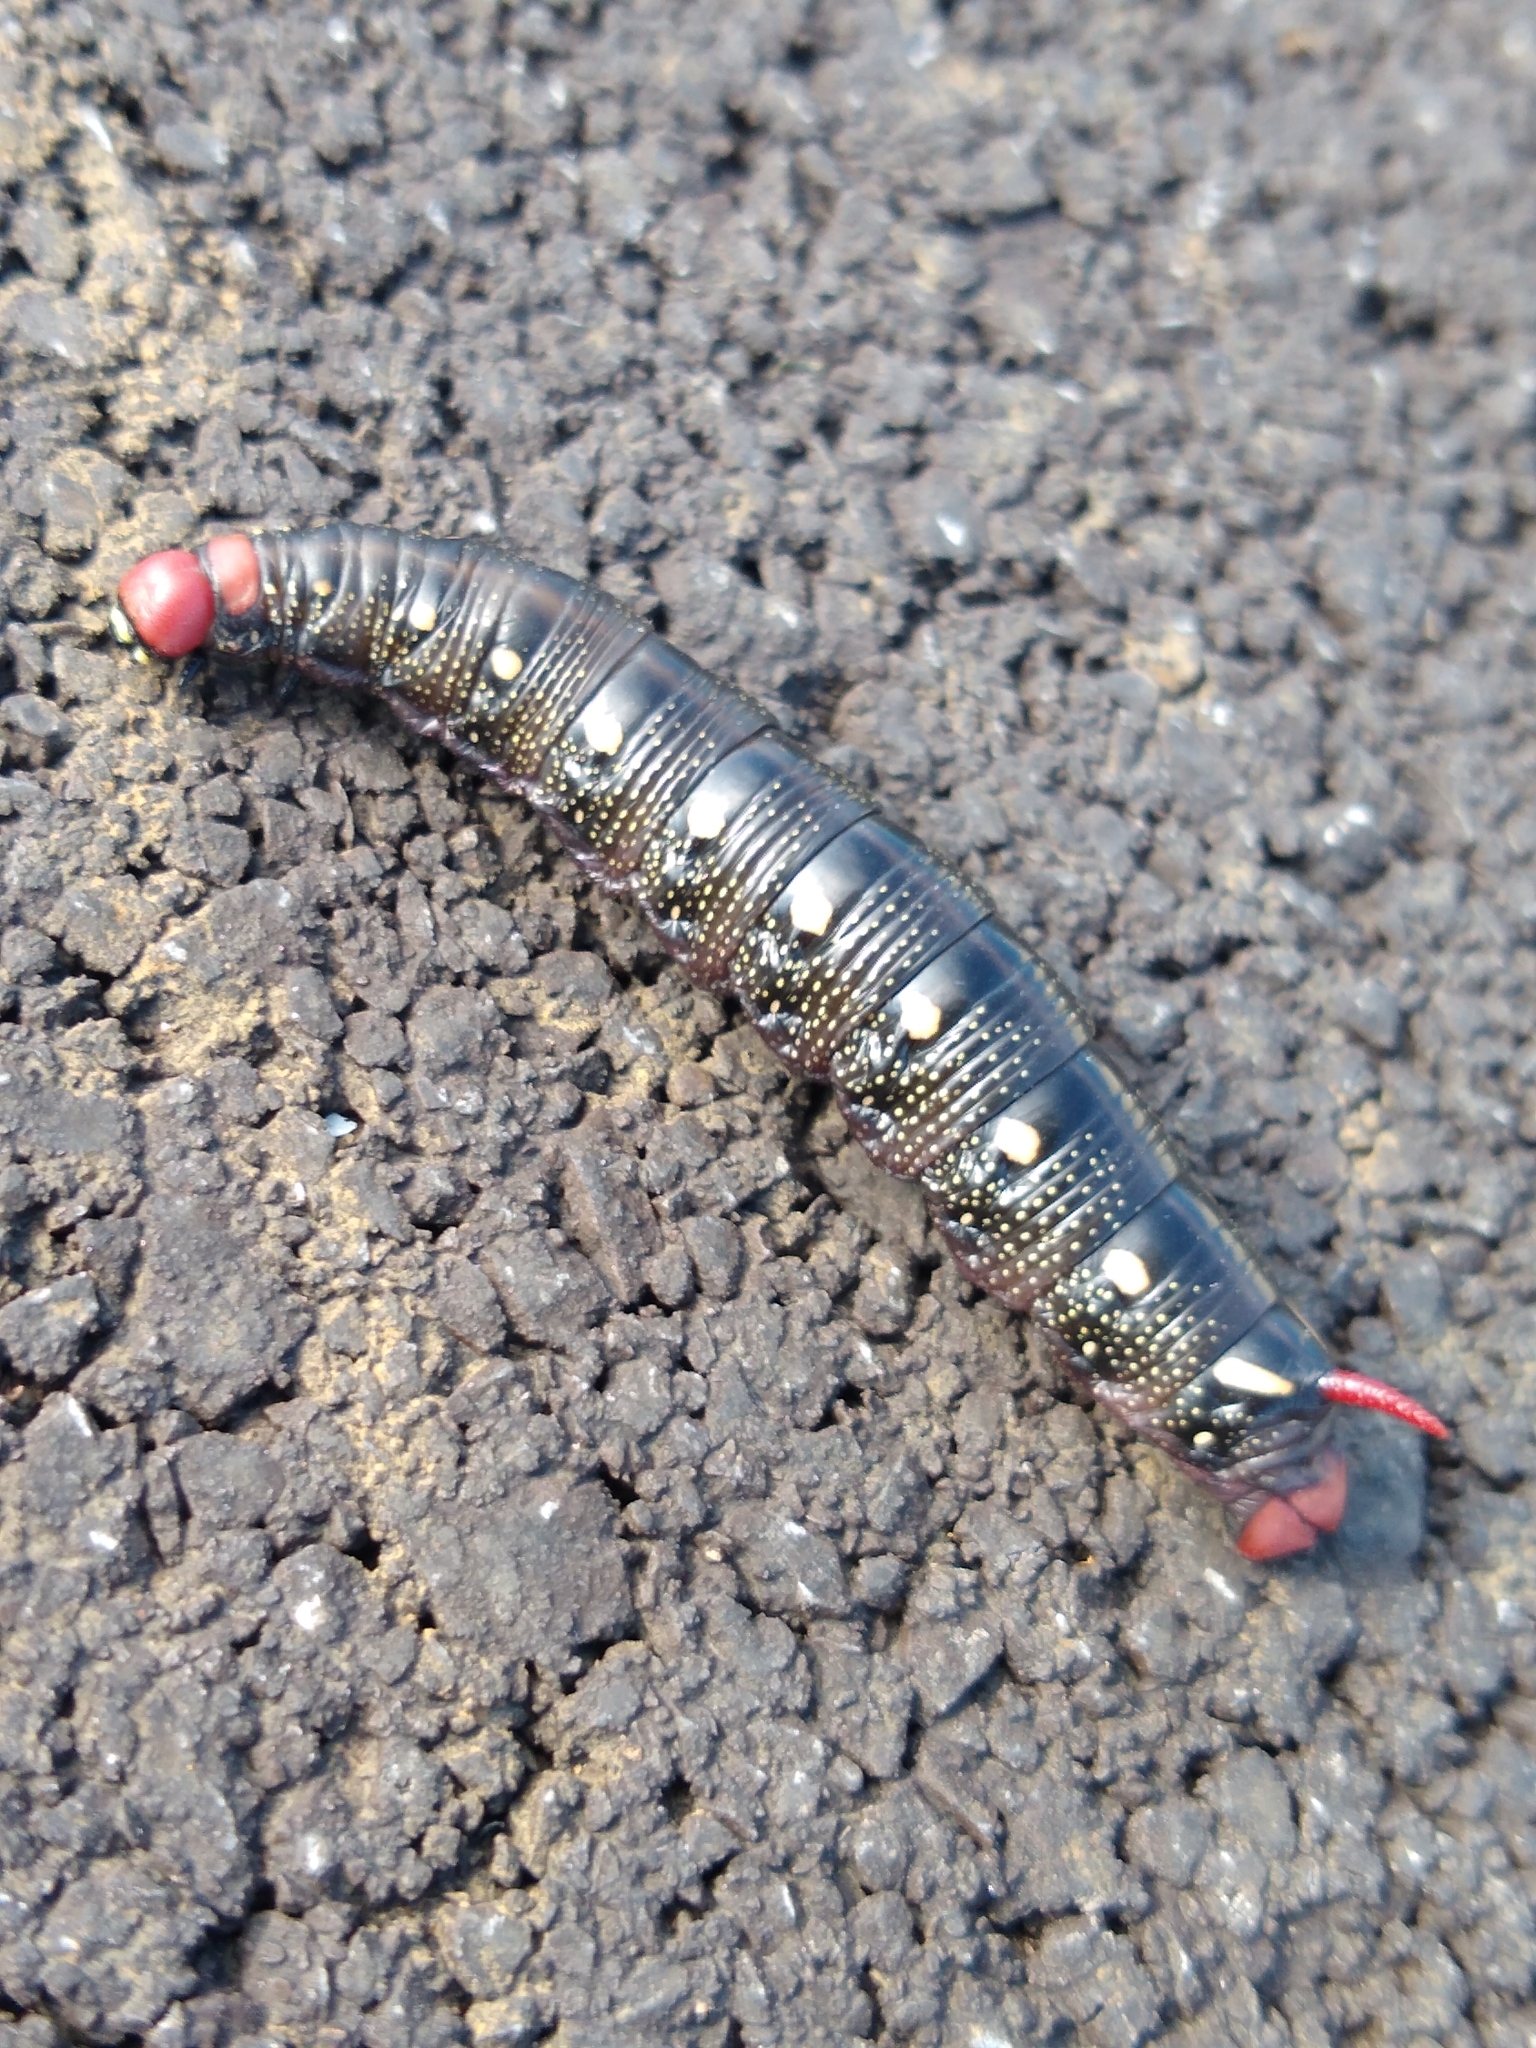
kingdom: Animalia
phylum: Arthropoda
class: Insecta
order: Lepidoptera
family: Sphingidae
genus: Hyles
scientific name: Hyles gallii
